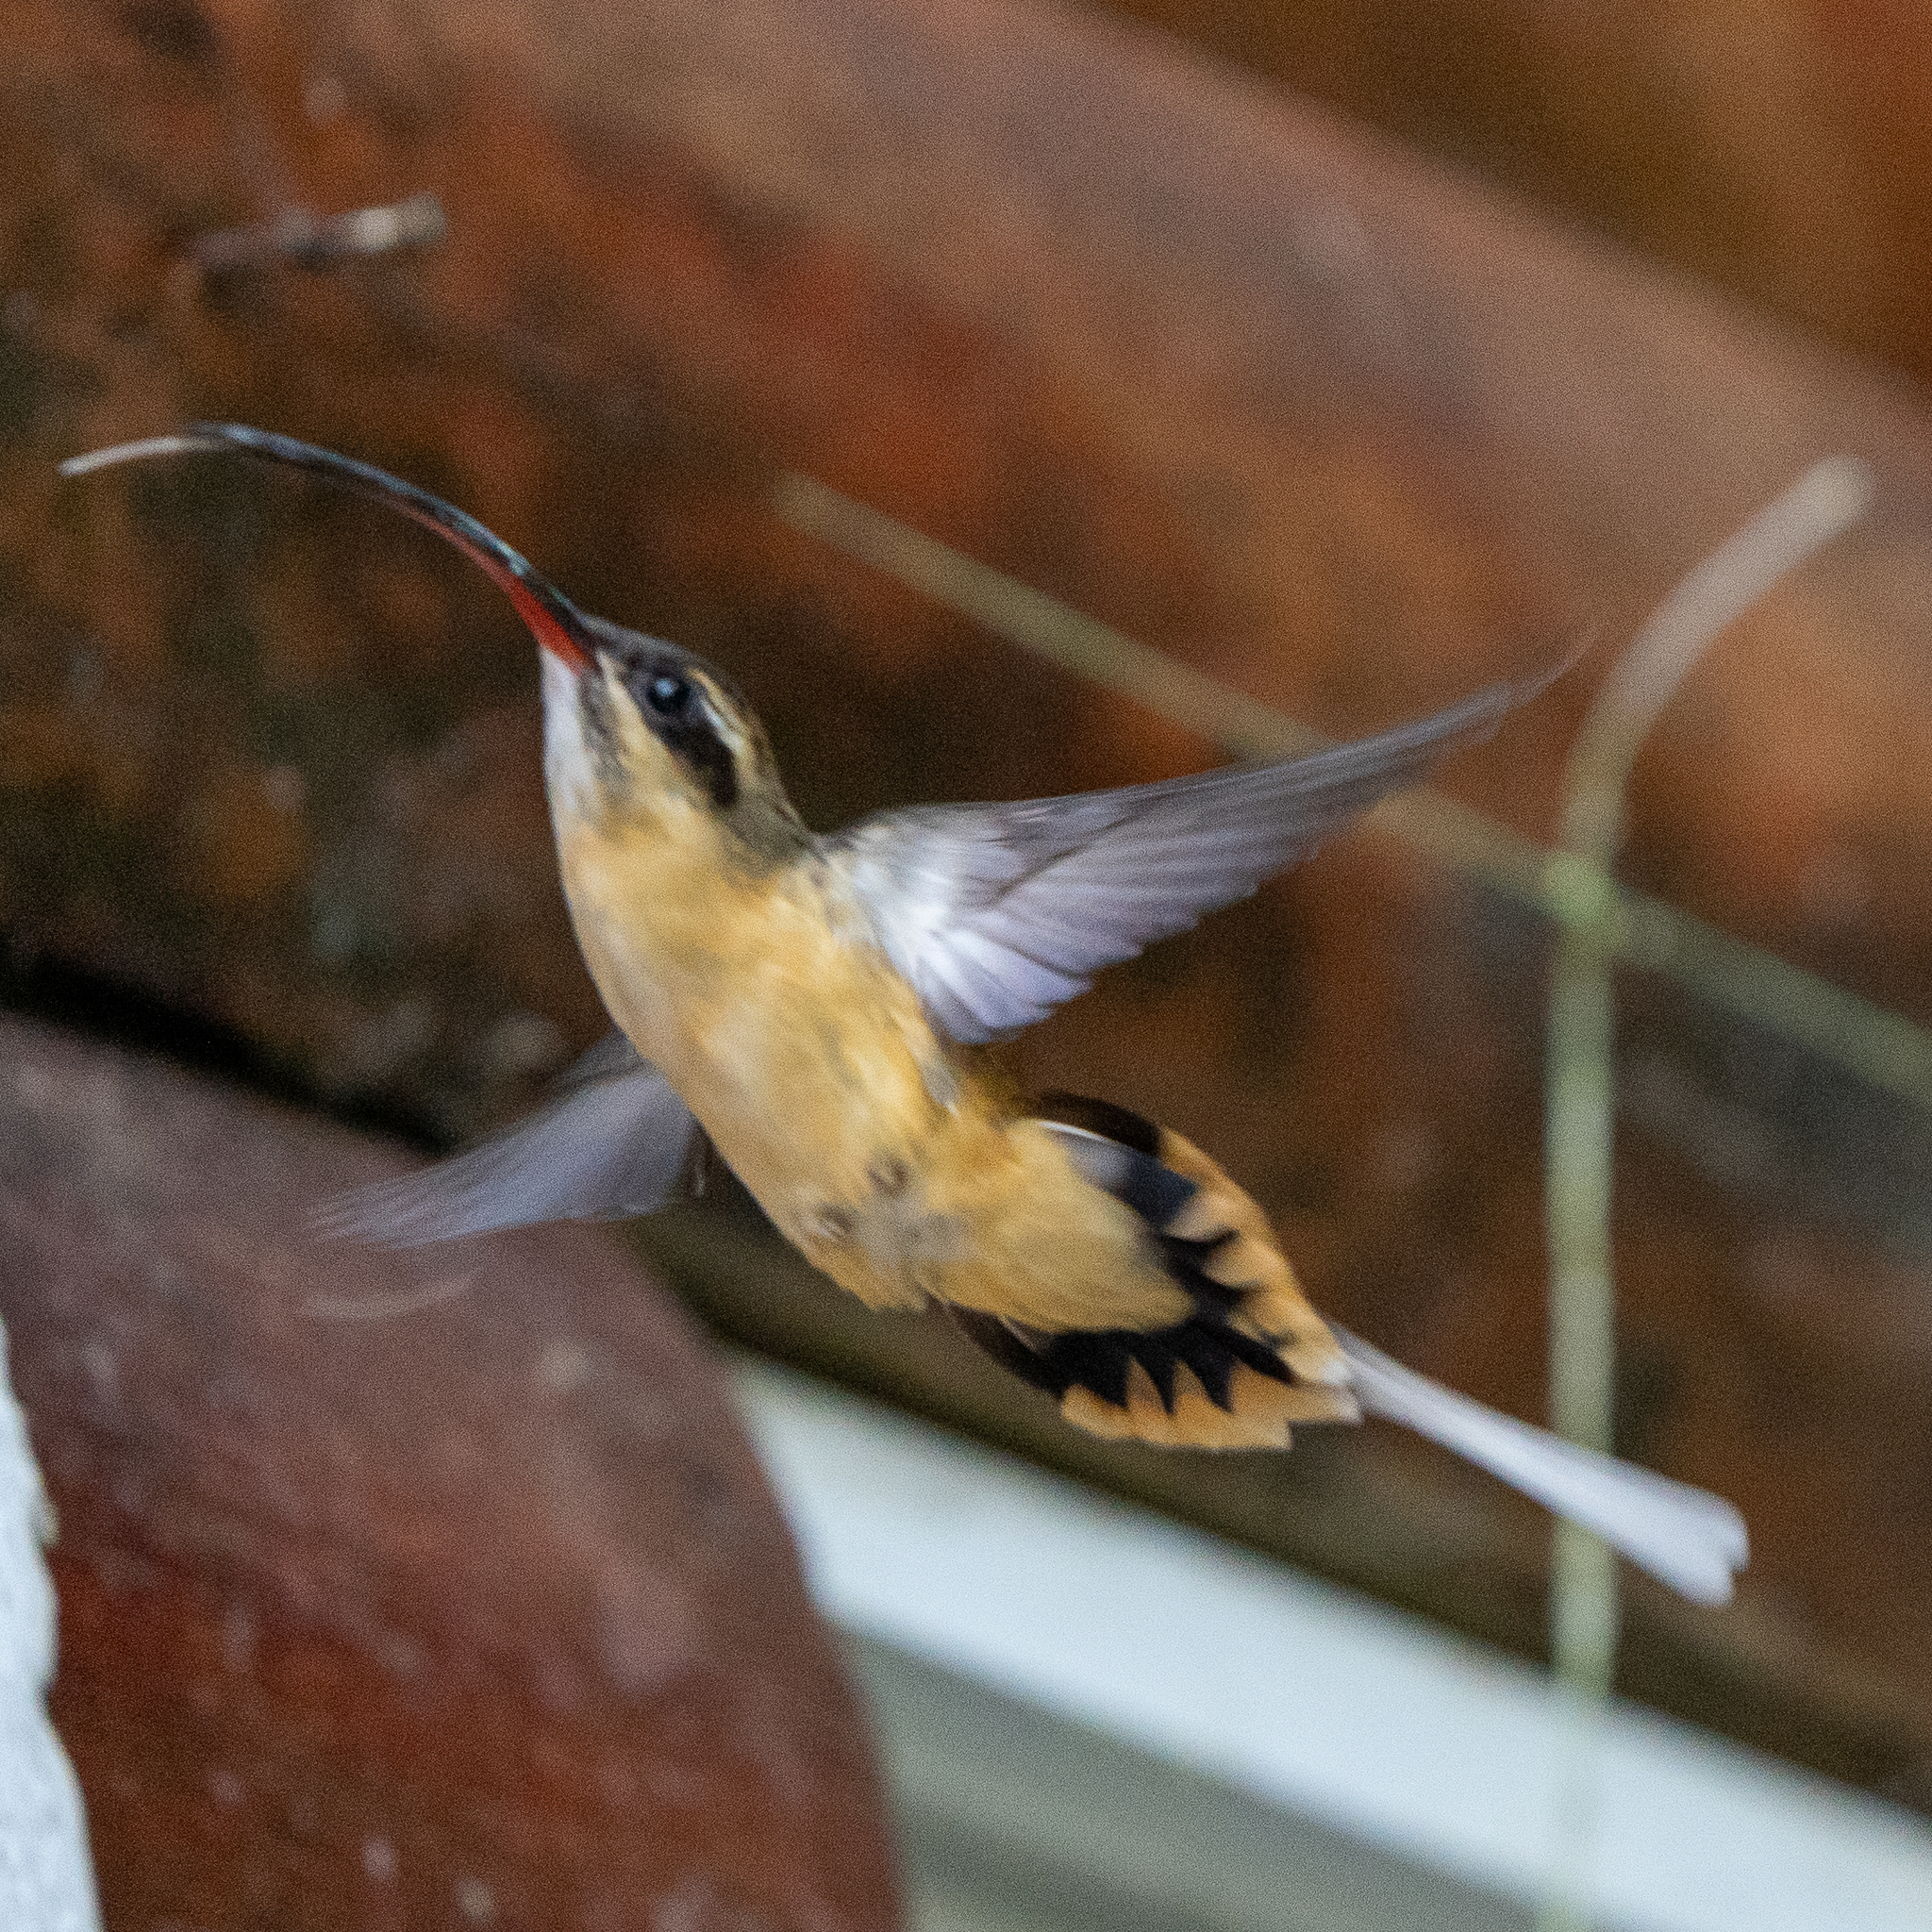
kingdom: Animalia
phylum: Chordata
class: Aves
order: Apodiformes
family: Trochilidae
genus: Phaethornis
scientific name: Phaethornis syrmatophorus
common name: Tawny-bellied hermit
